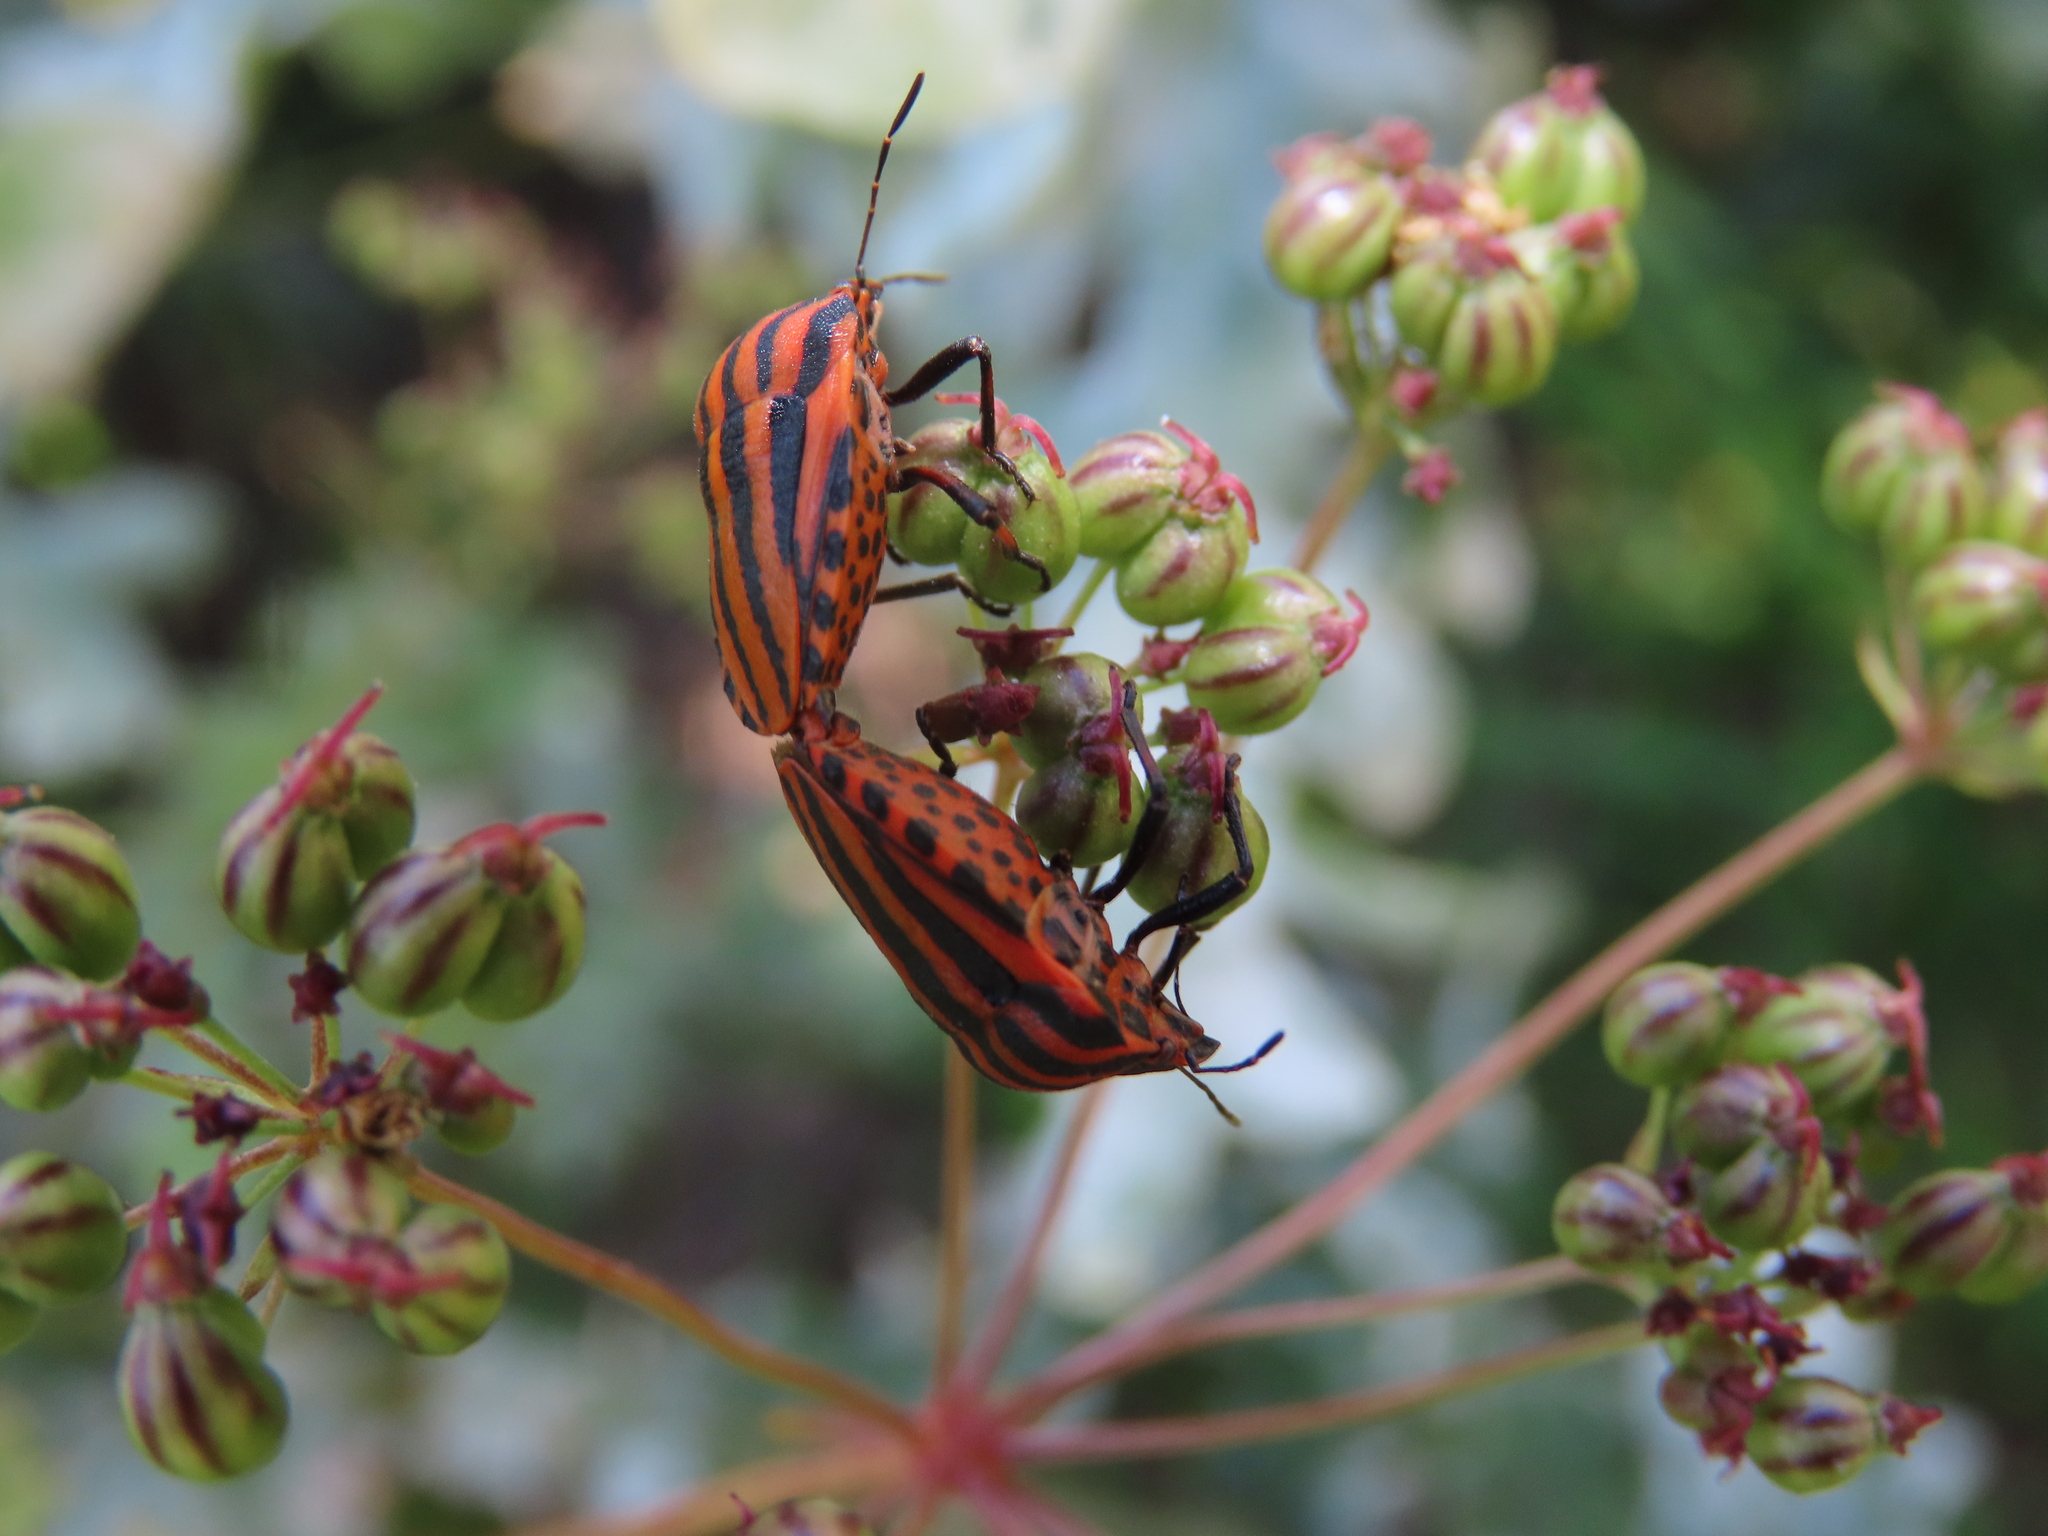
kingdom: Animalia
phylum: Arthropoda
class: Insecta
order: Hemiptera
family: Pentatomidae
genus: Graphosoma
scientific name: Graphosoma italicum
